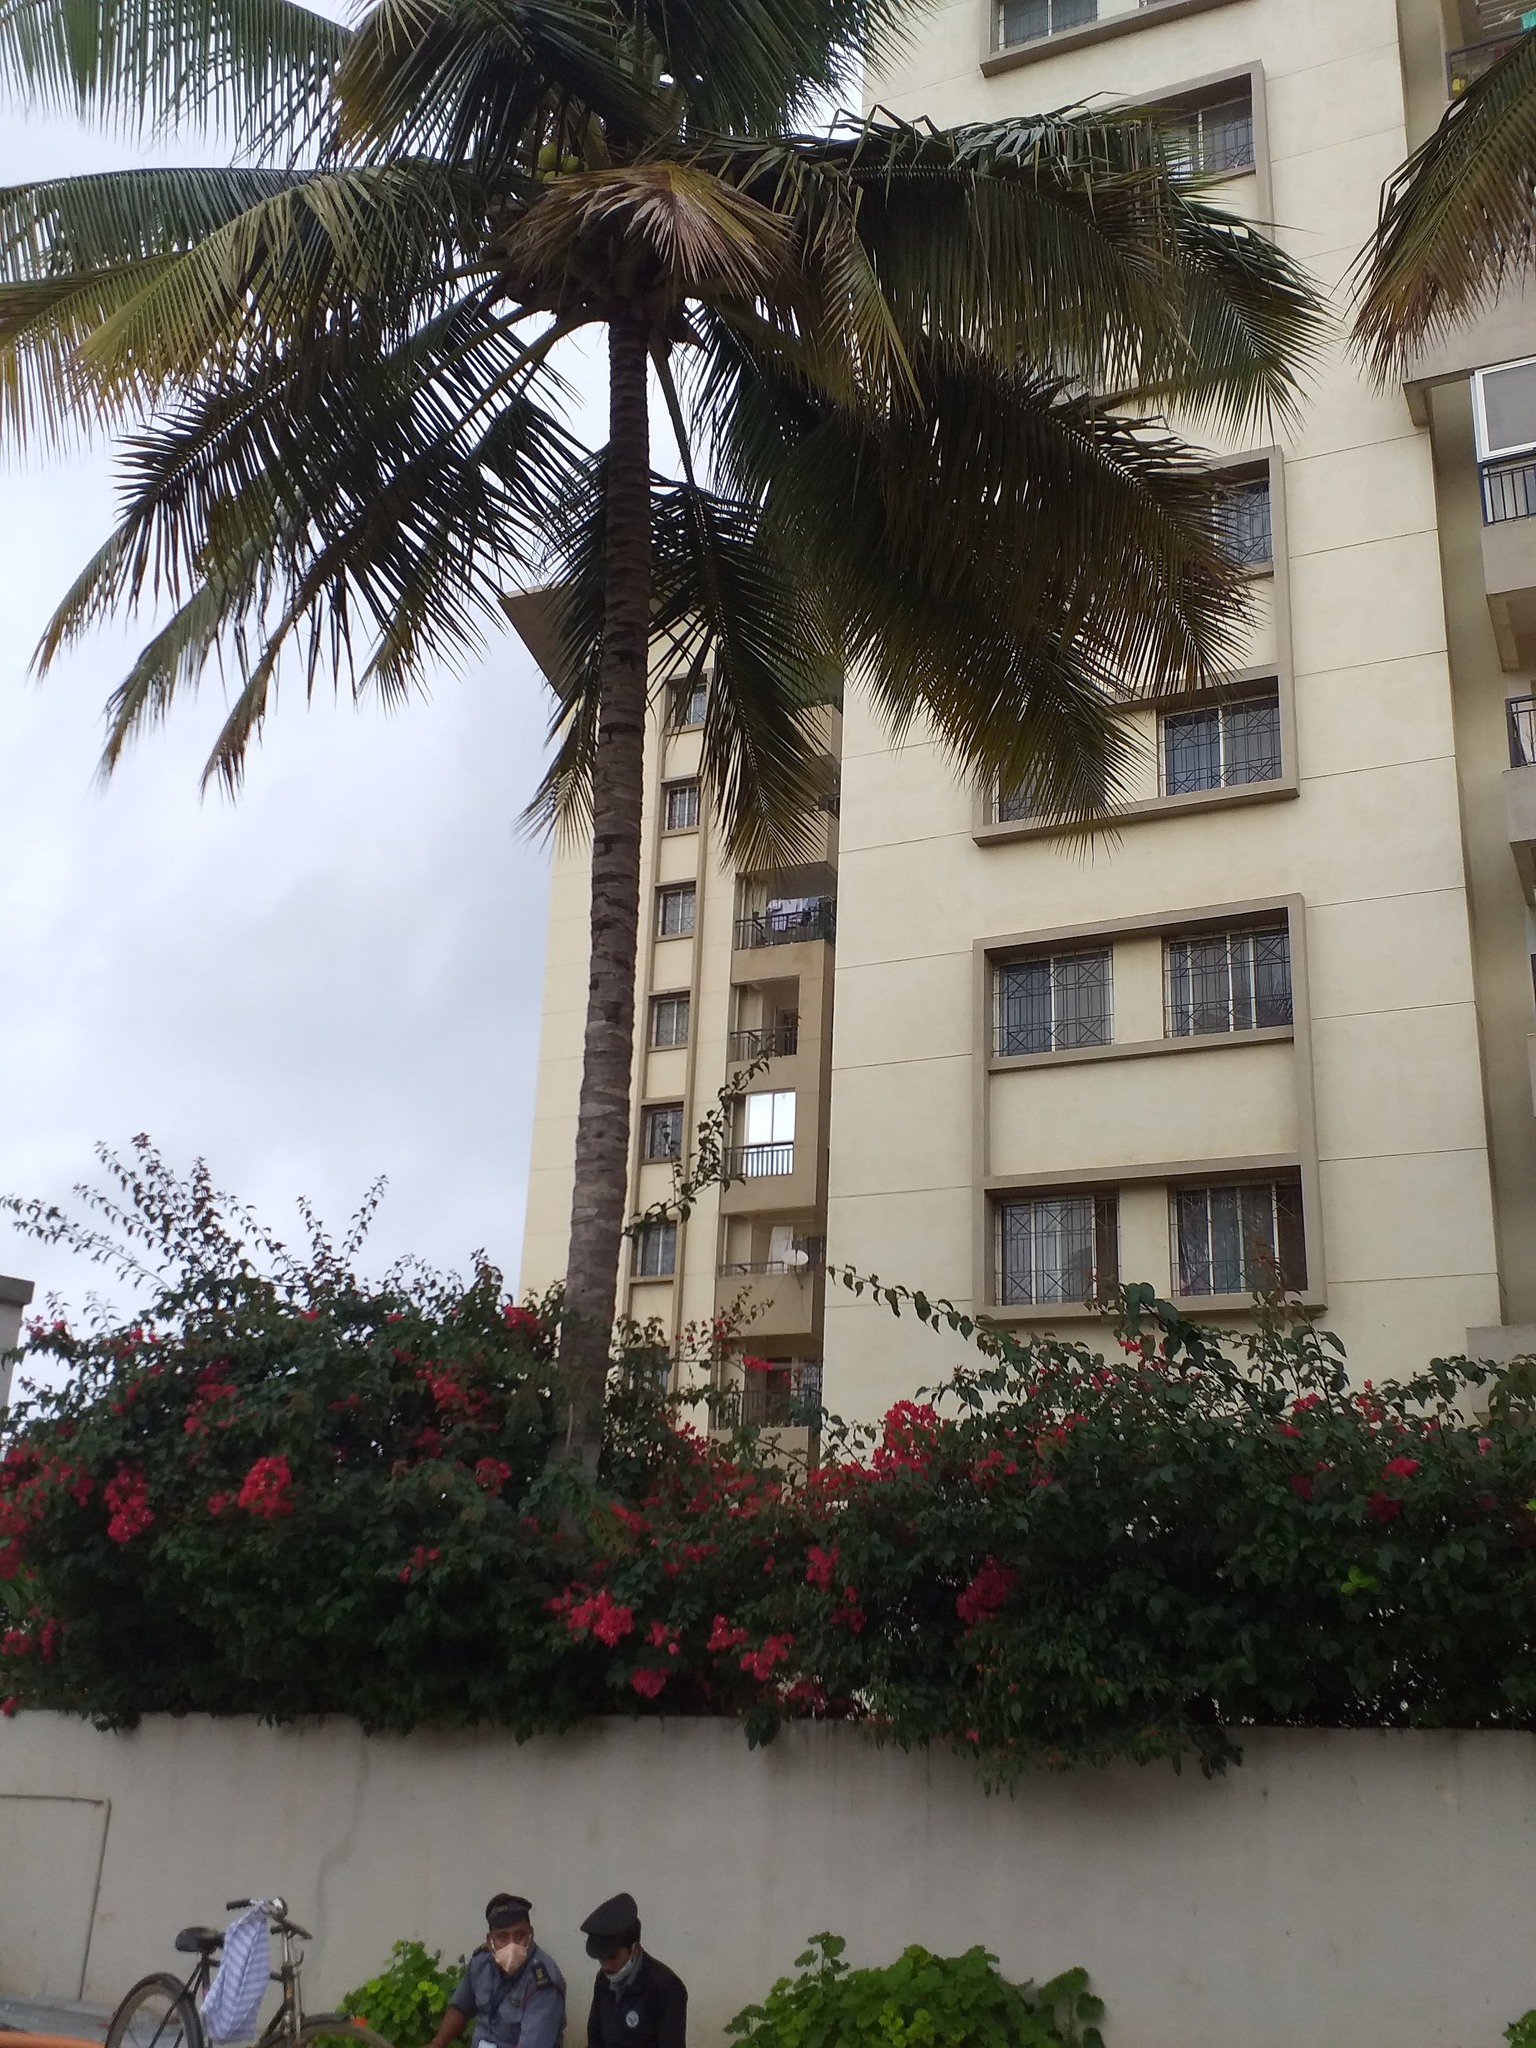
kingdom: Plantae
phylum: Tracheophyta
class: Liliopsida
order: Arecales
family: Arecaceae
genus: Cocos
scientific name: Cocos nucifera
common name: Coconut palm
